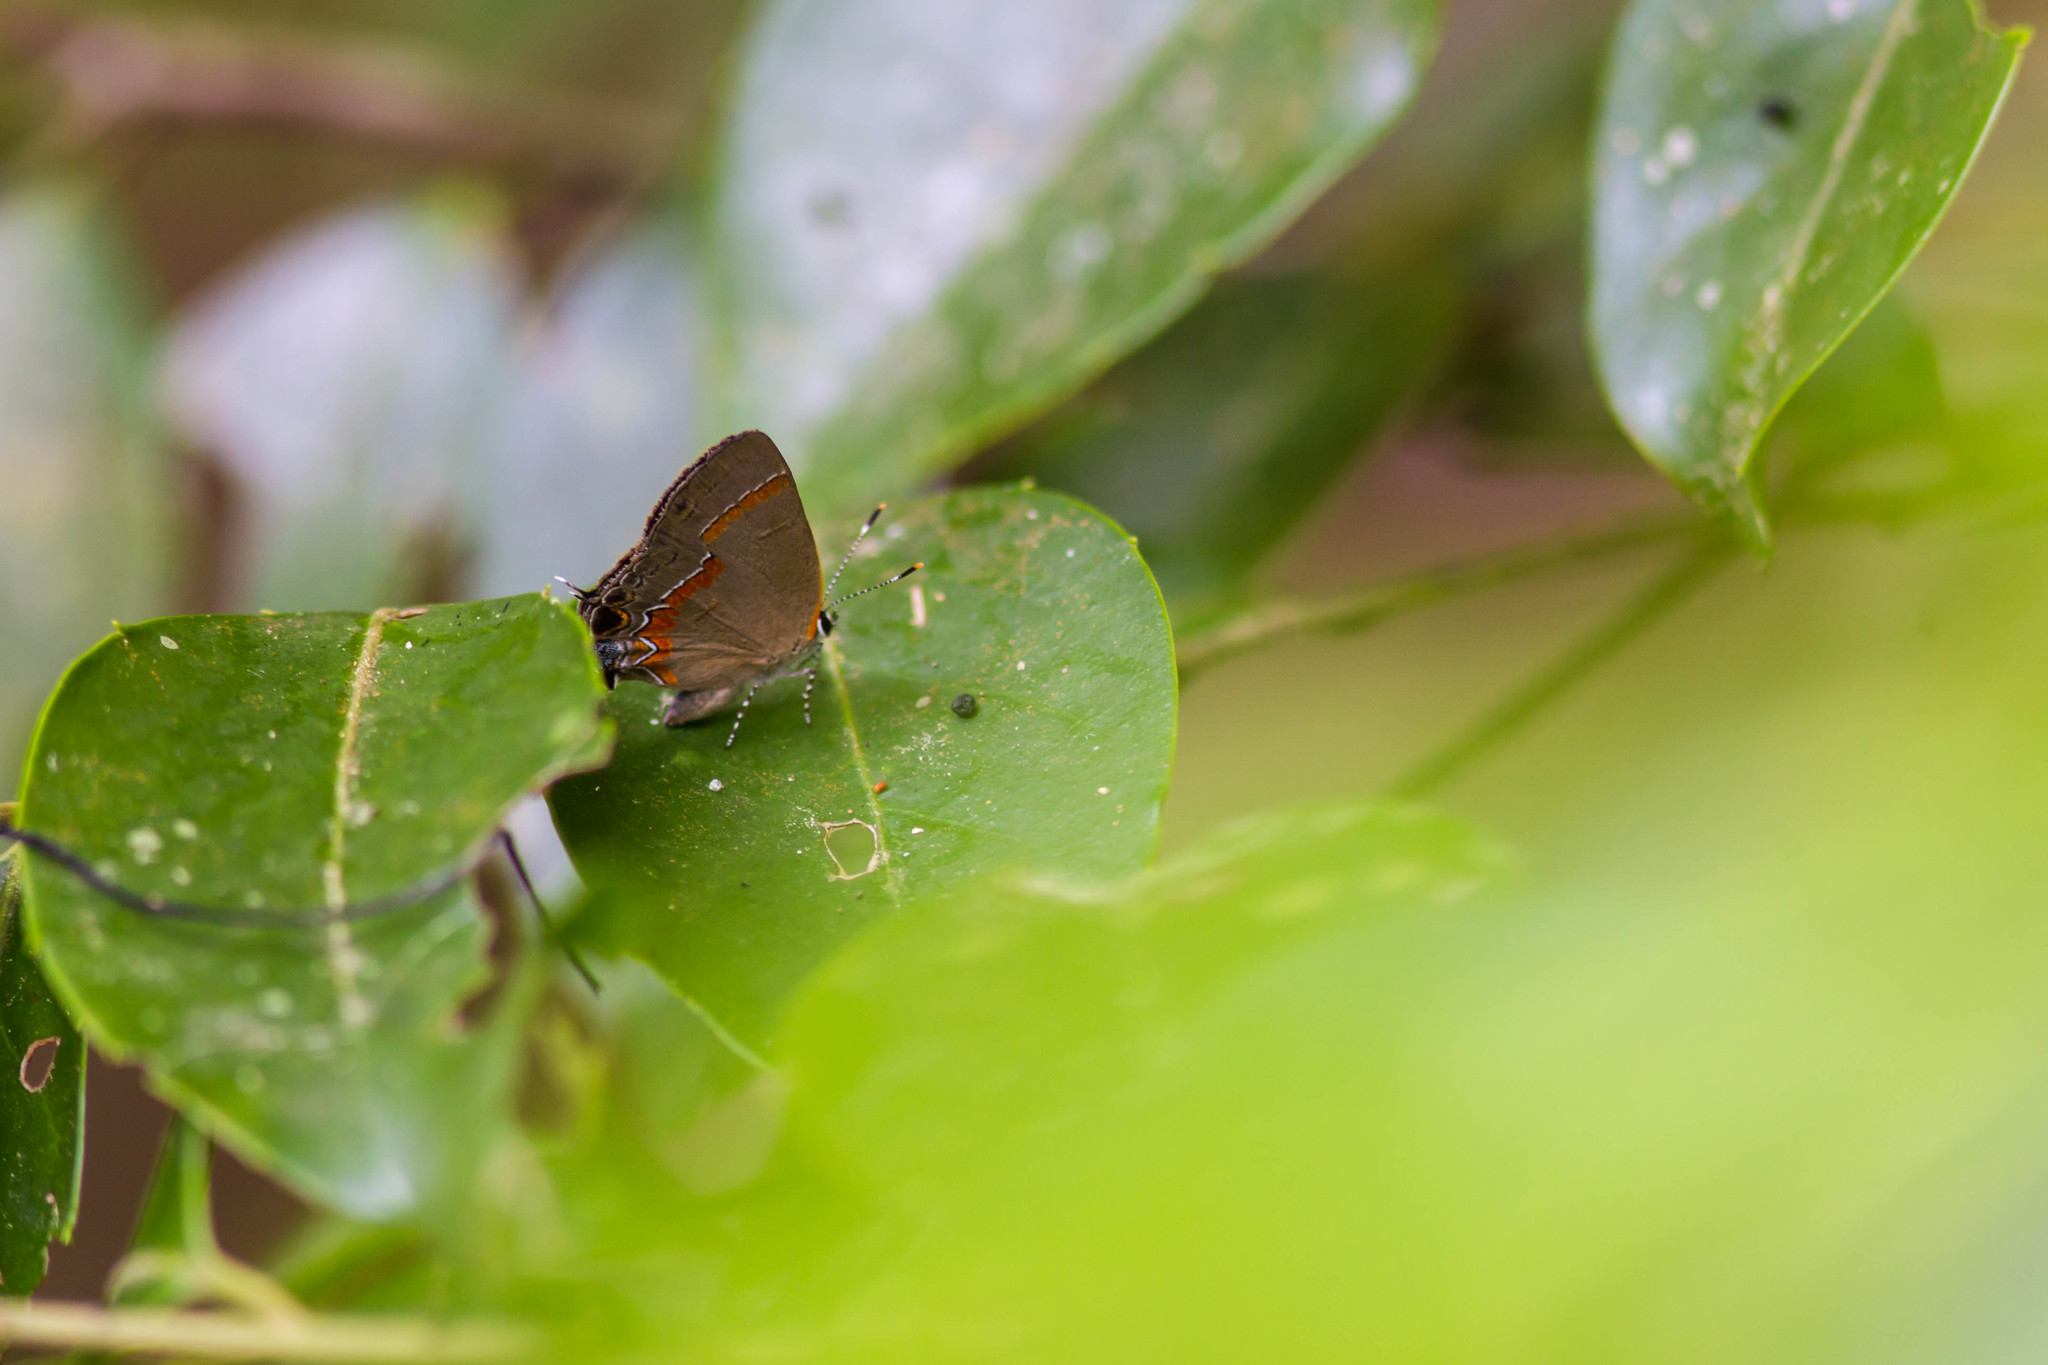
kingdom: Animalia
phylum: Arthropoda
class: Insecta
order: Lepidoptera
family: Lycaenidae
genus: Calycopis
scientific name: Calycopis cecrops
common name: Red-banded hairstreak
